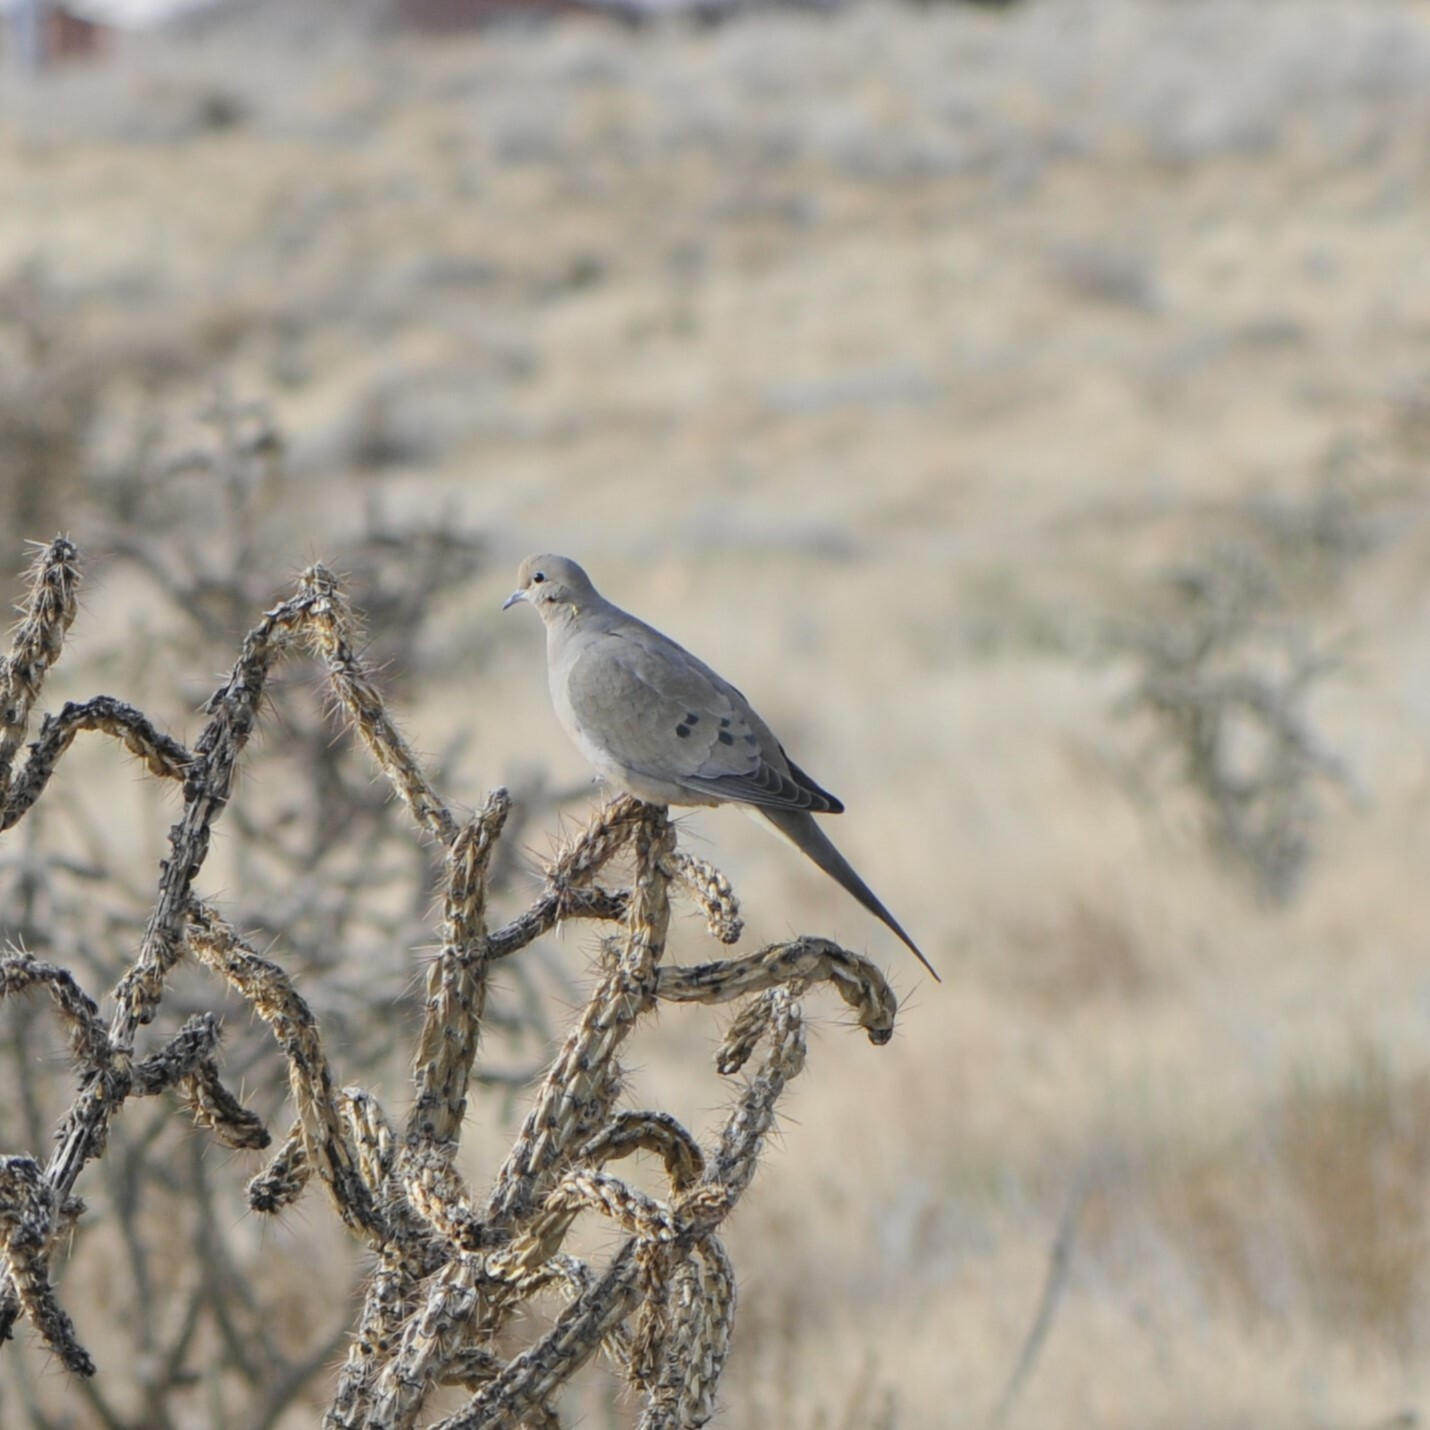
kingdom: Animalia
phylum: Chordata
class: Aves
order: Columbiformes
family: Columbidae
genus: Zenaida
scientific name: Zenaida macroura
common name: Mourning dove
